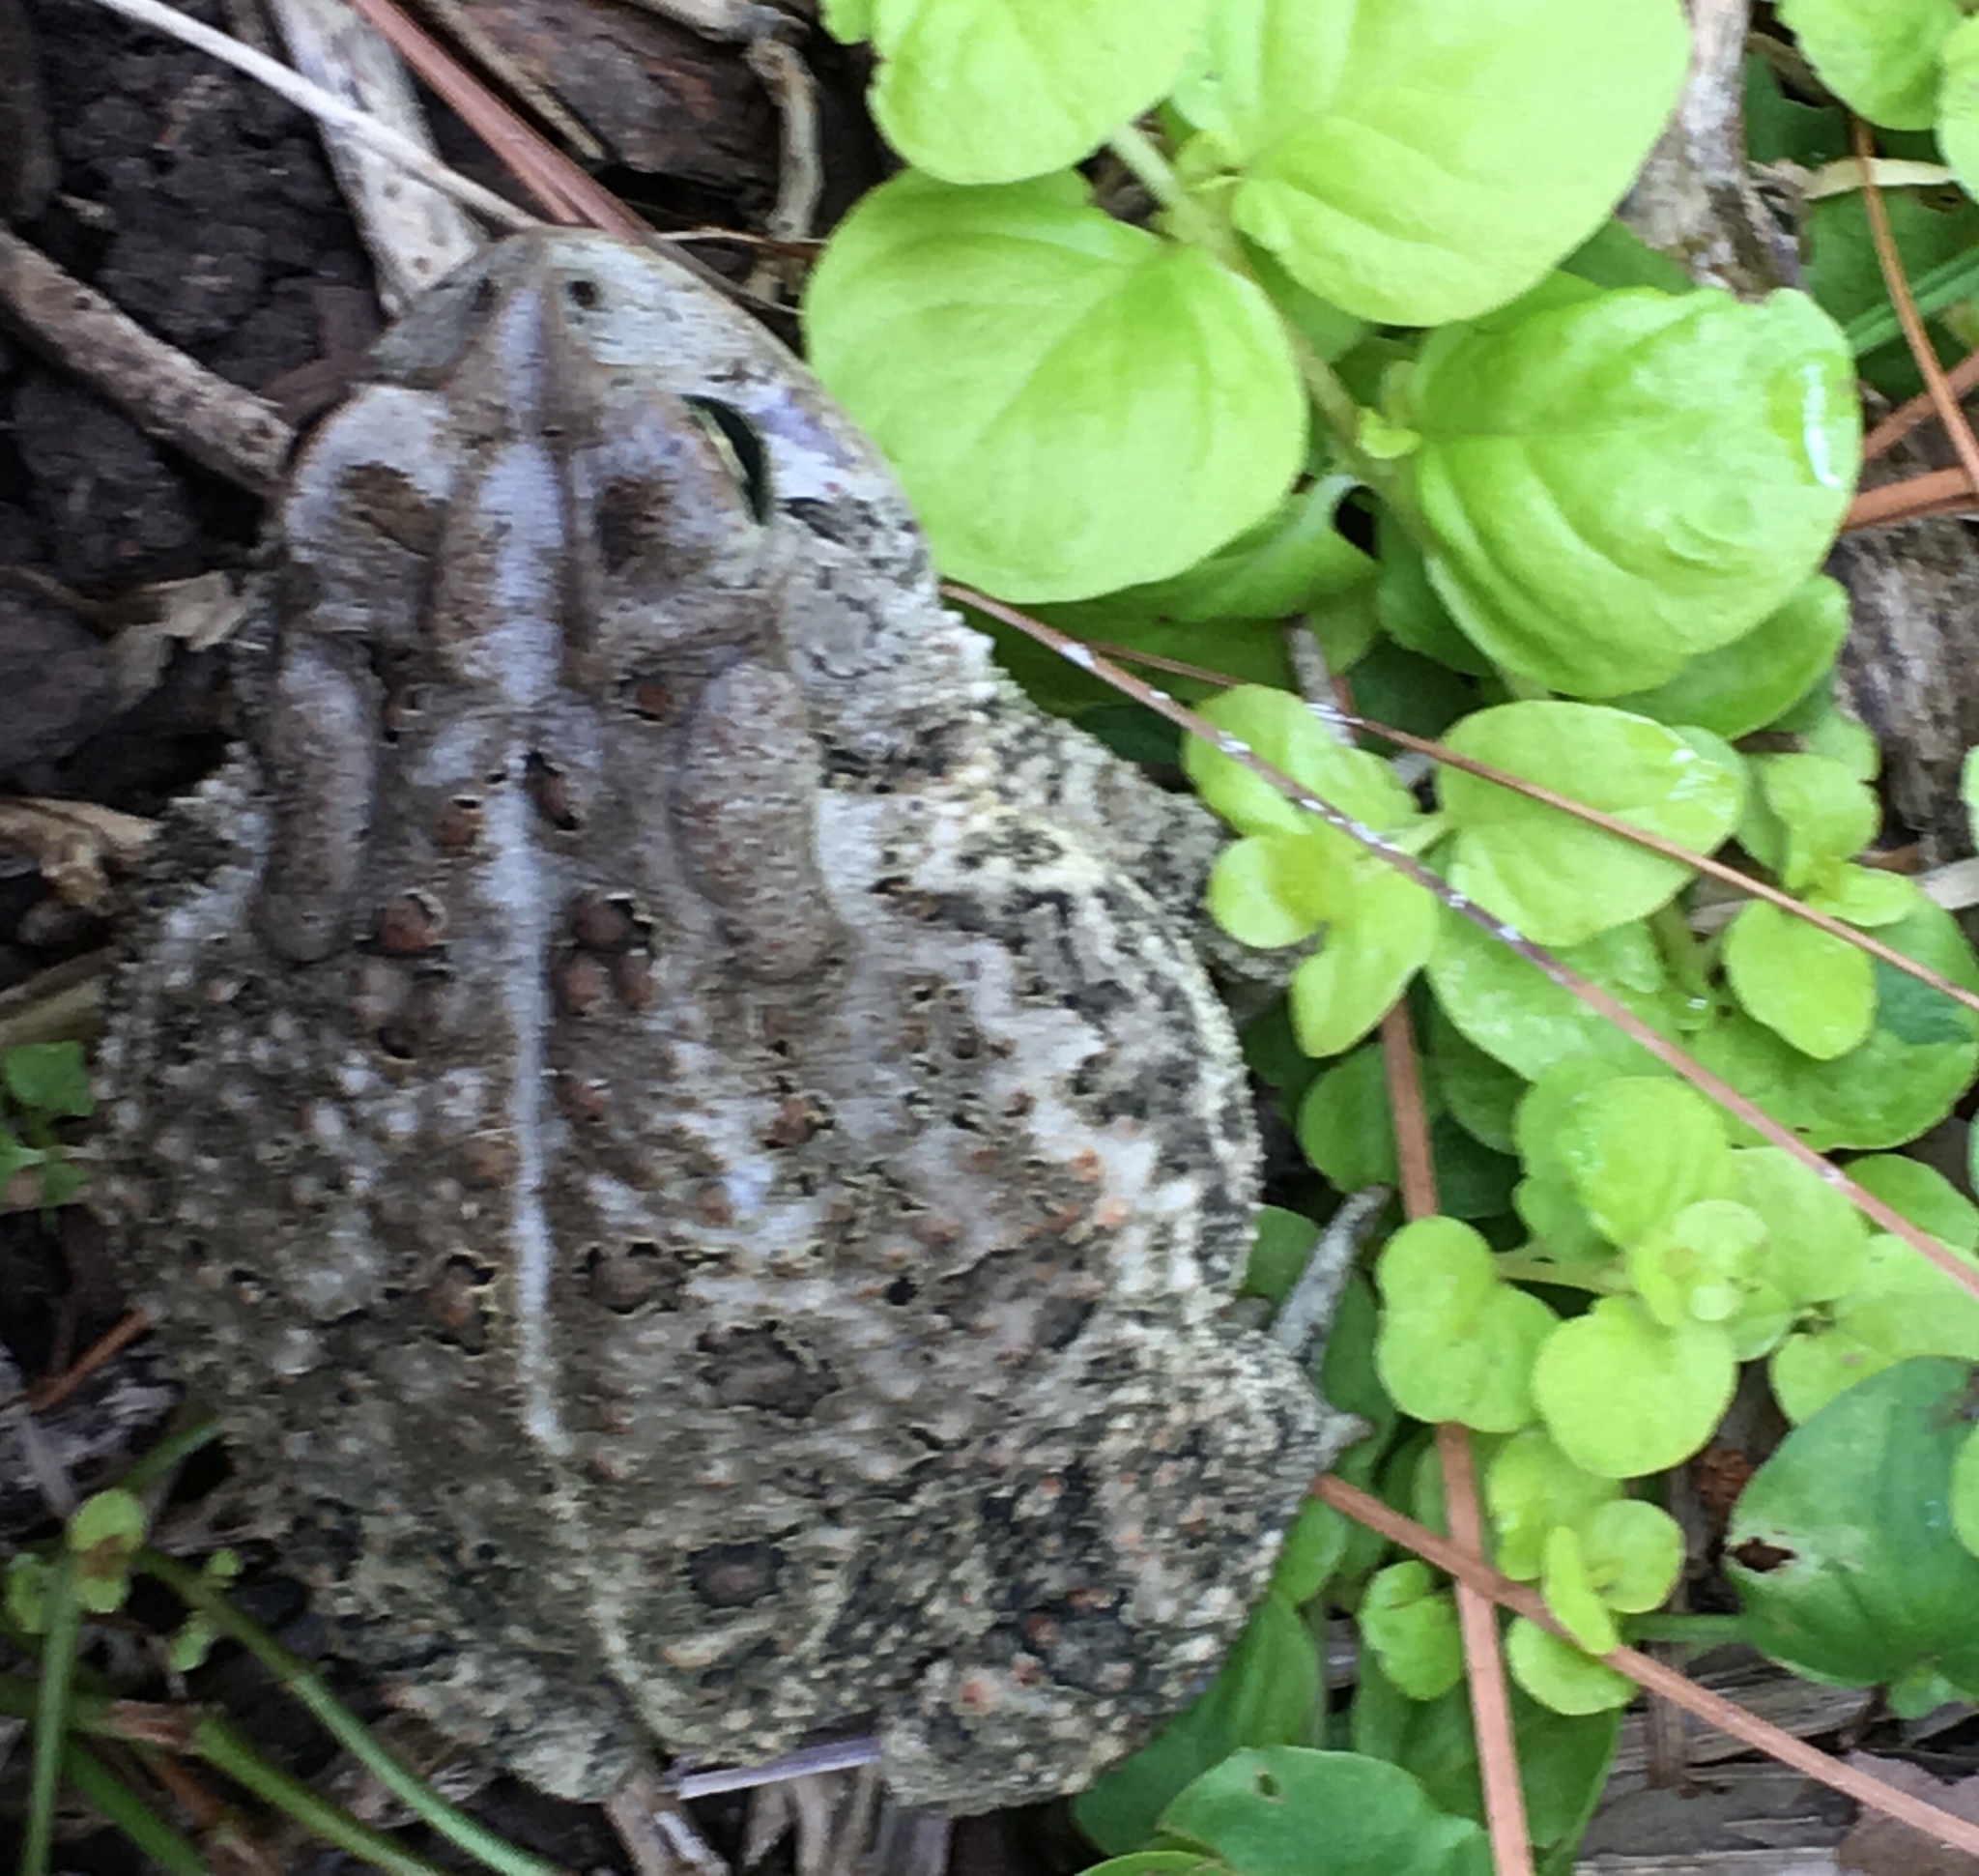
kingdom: Animalia
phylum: Chordata
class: Amphibia
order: Anura
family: Bufonidae
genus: Anaxyrus
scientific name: Anaxyrus terrestris
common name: Southern toad
